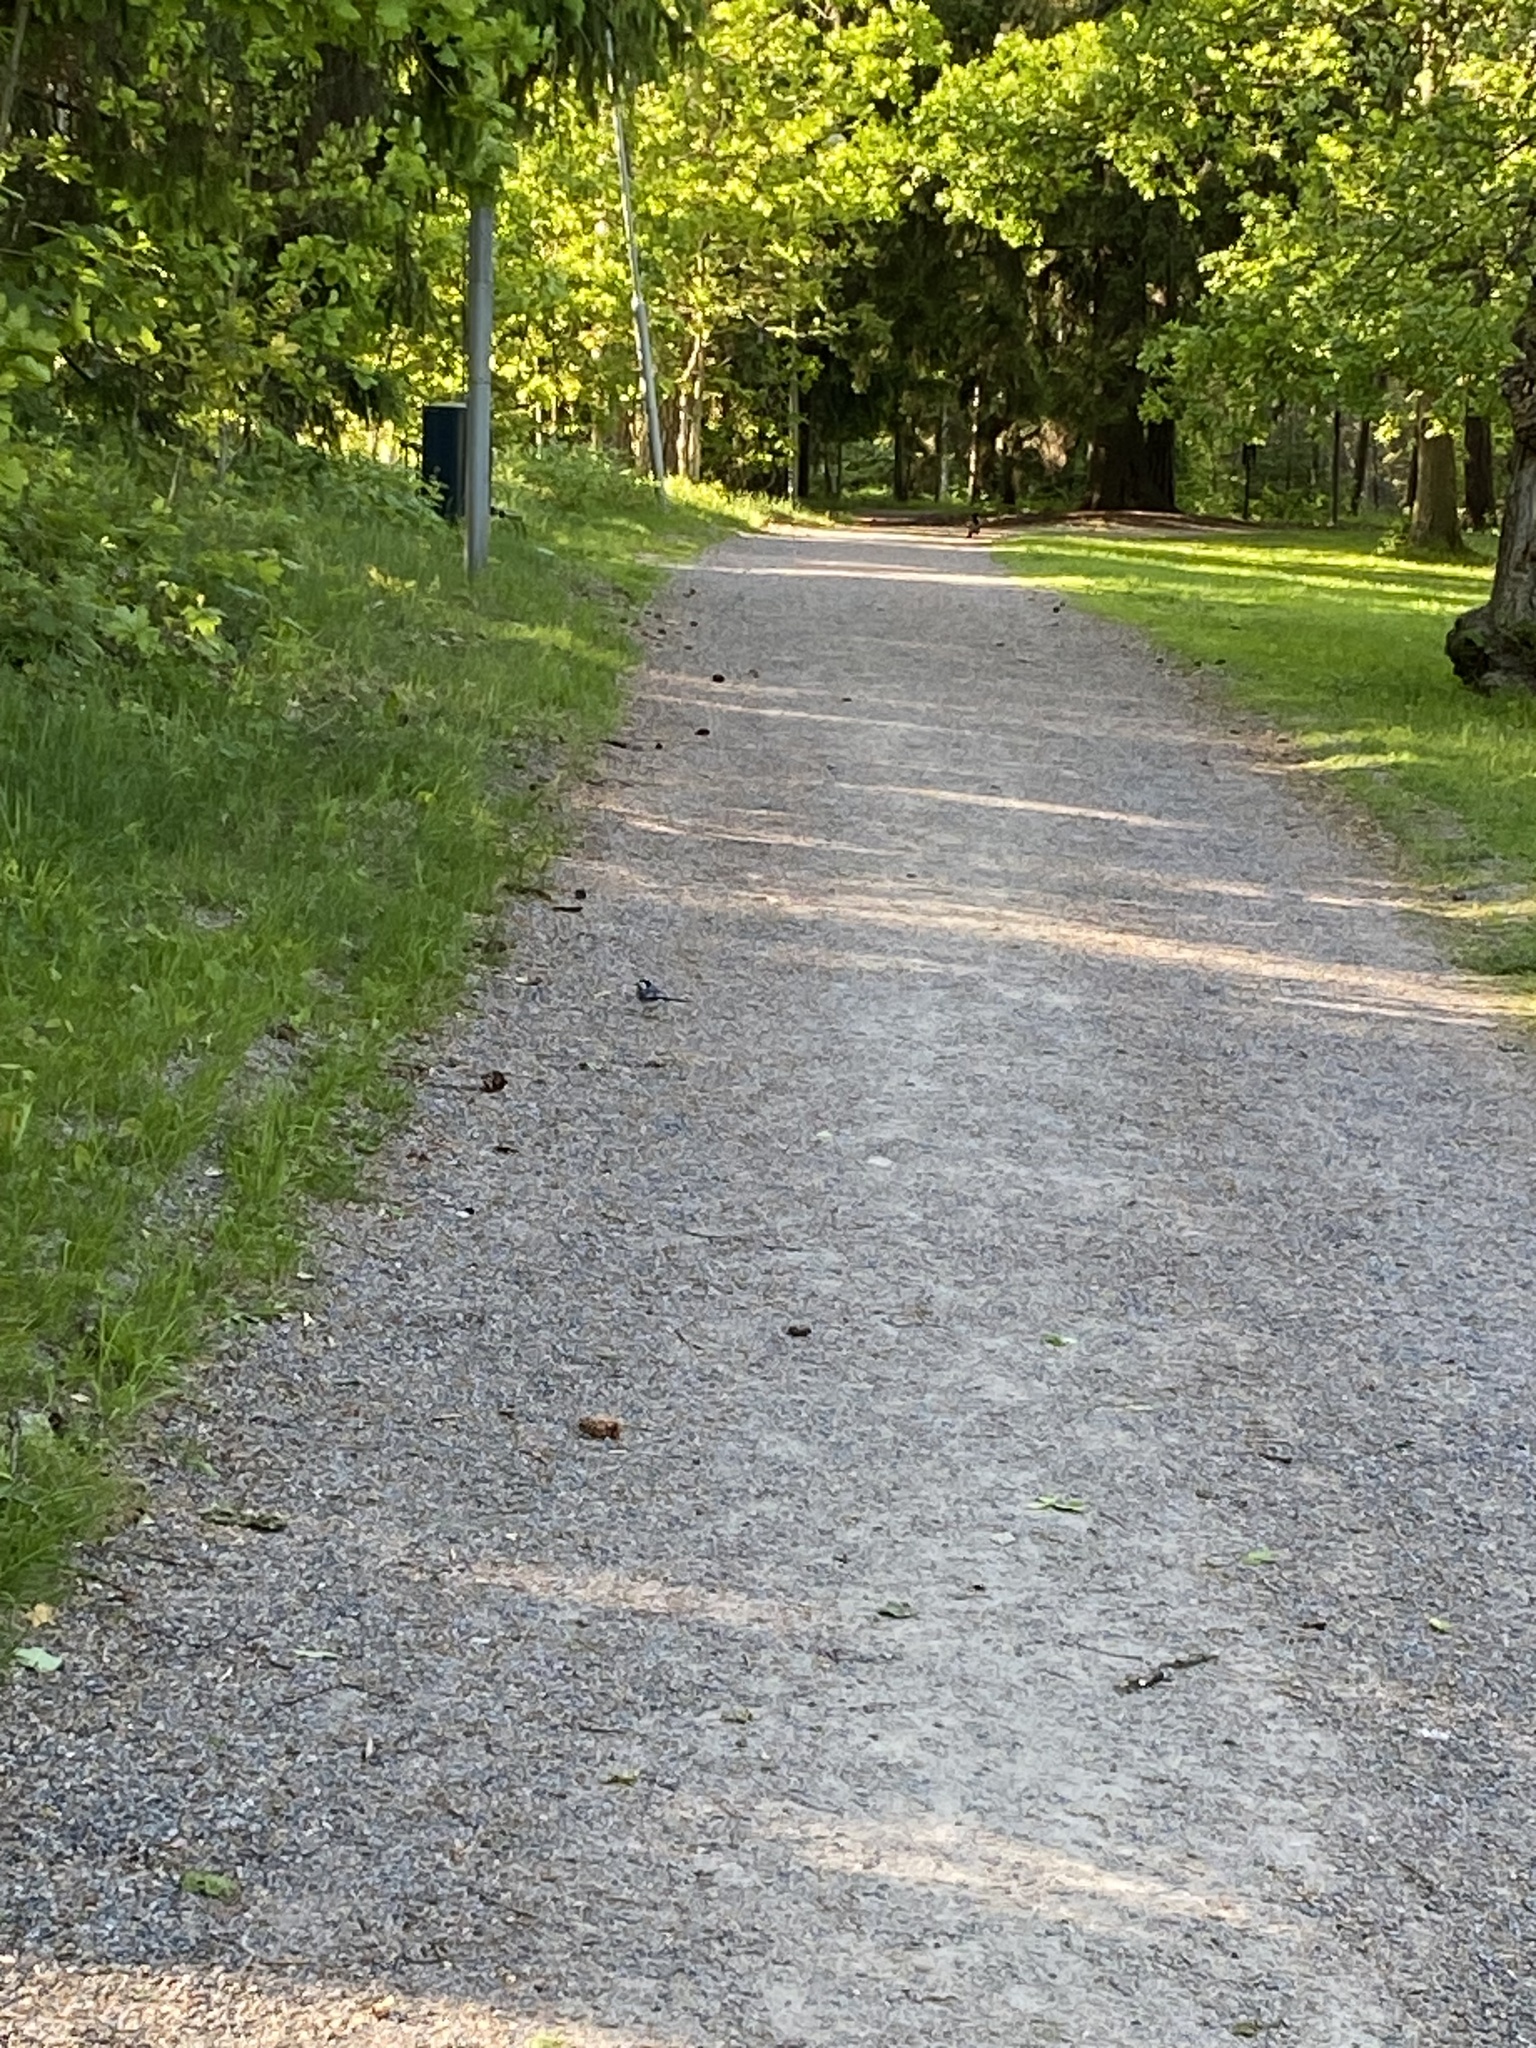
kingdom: Animalia
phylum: Chordata
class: Aves
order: Passeriformes
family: Motacillidae
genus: Motacilla
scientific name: Motacilla alba
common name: White wagtail
